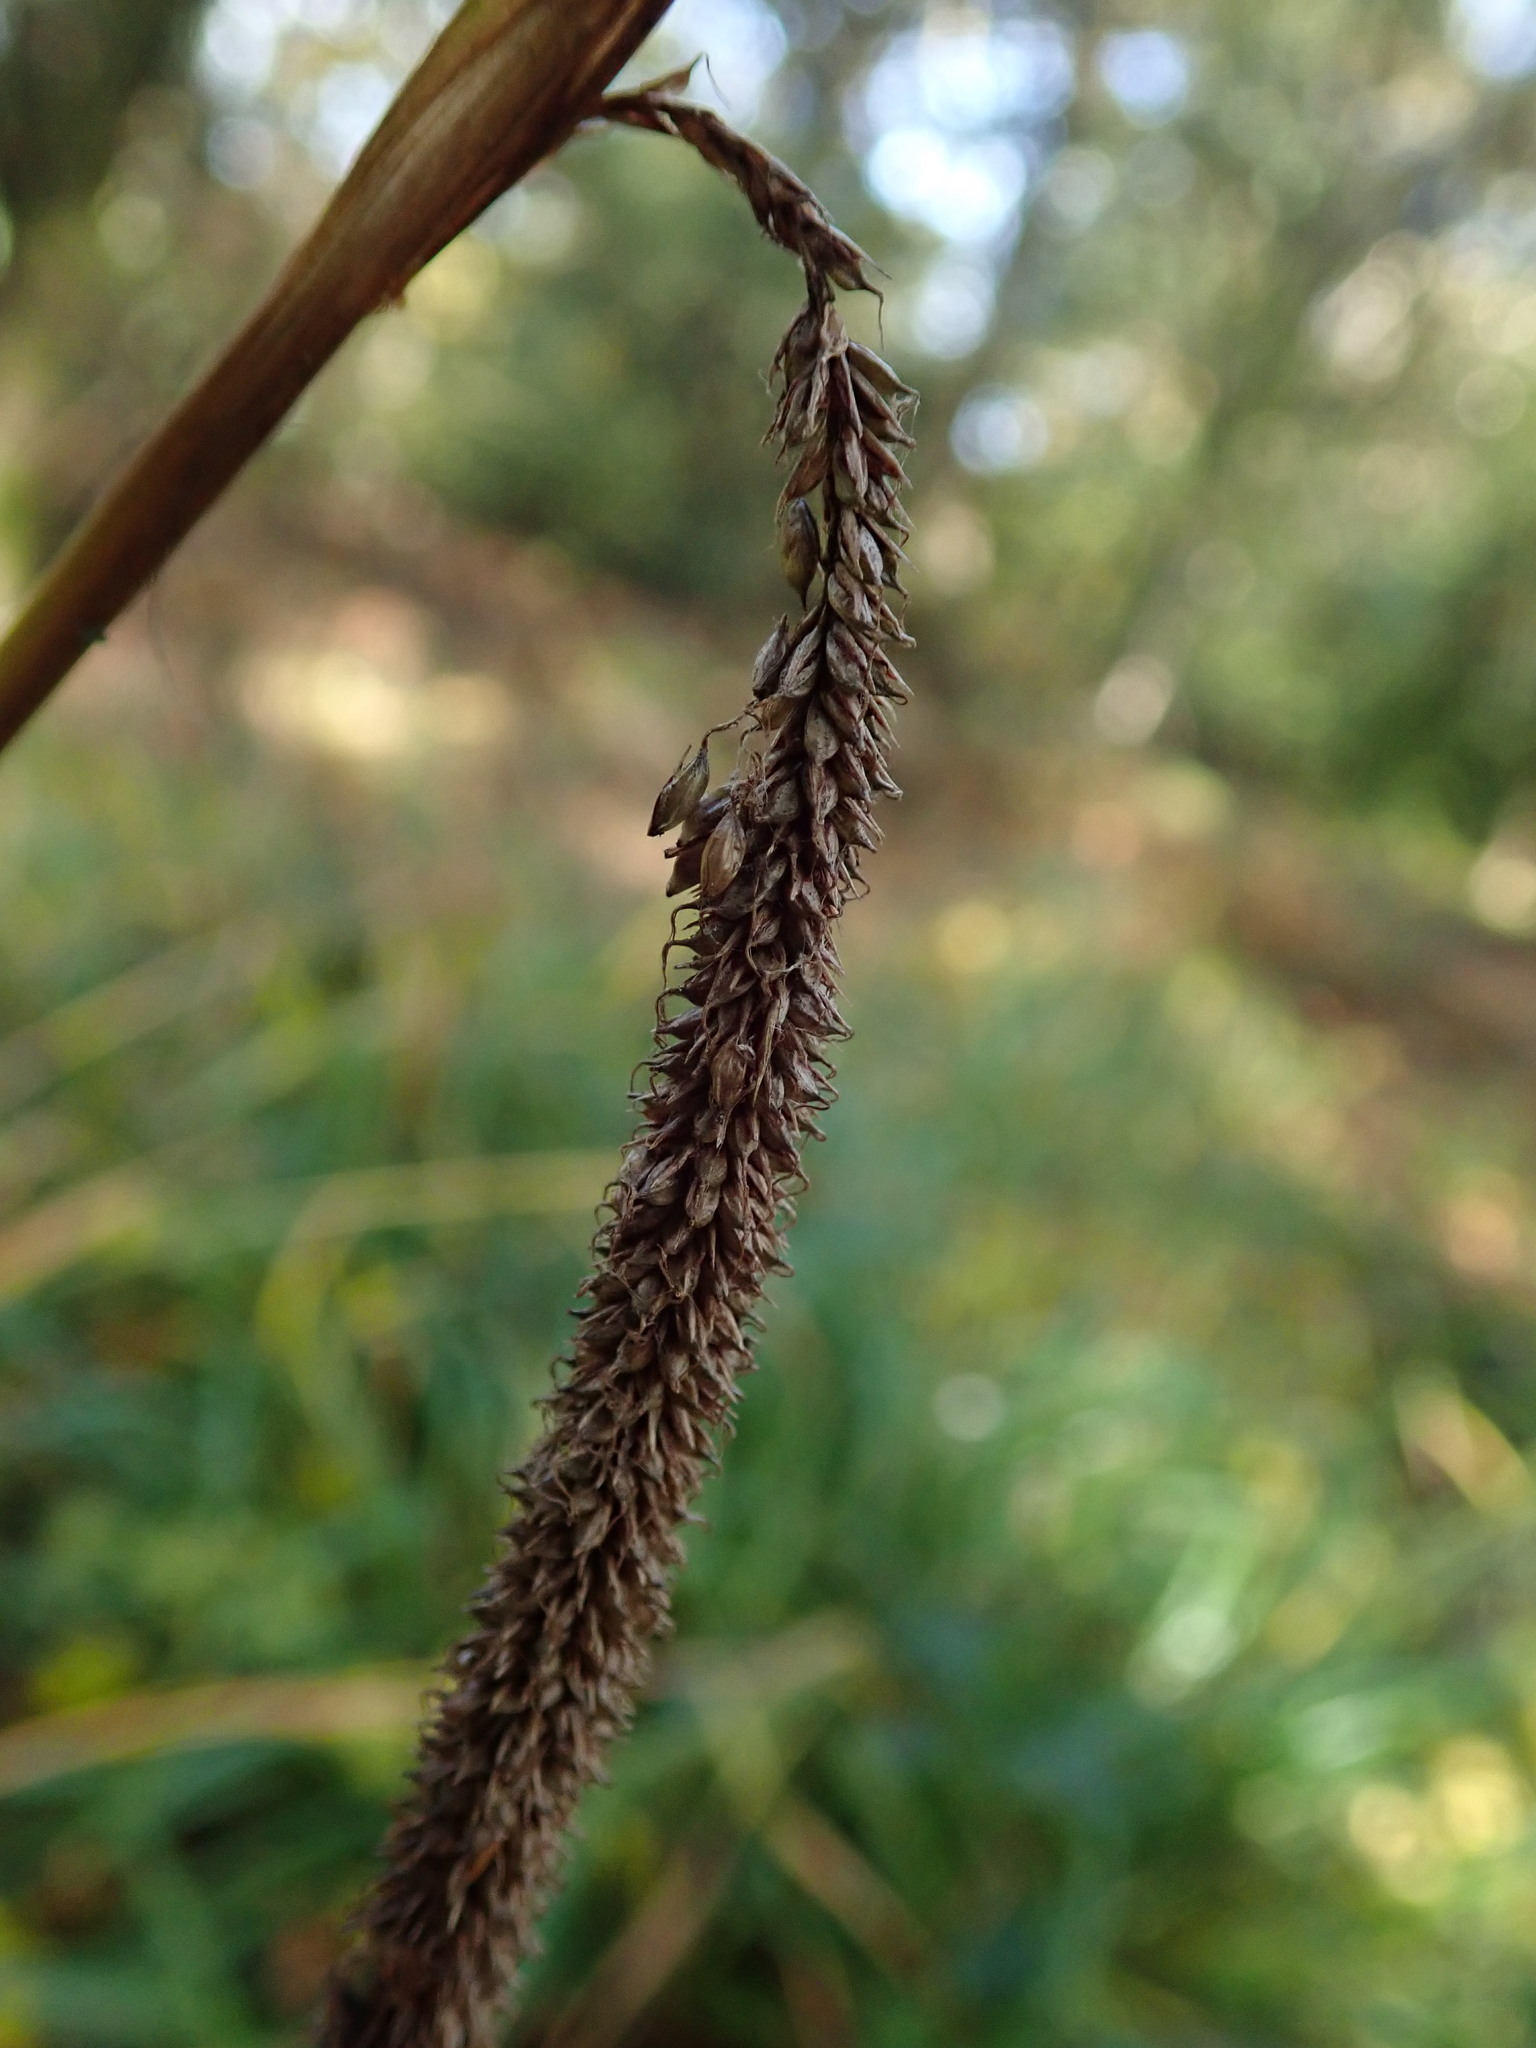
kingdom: Plantae
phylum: Tracheophyta
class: Liliopsida
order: Poales
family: Cyperaceae
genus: Carex
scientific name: Carex pendula
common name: Pendulous sedge
